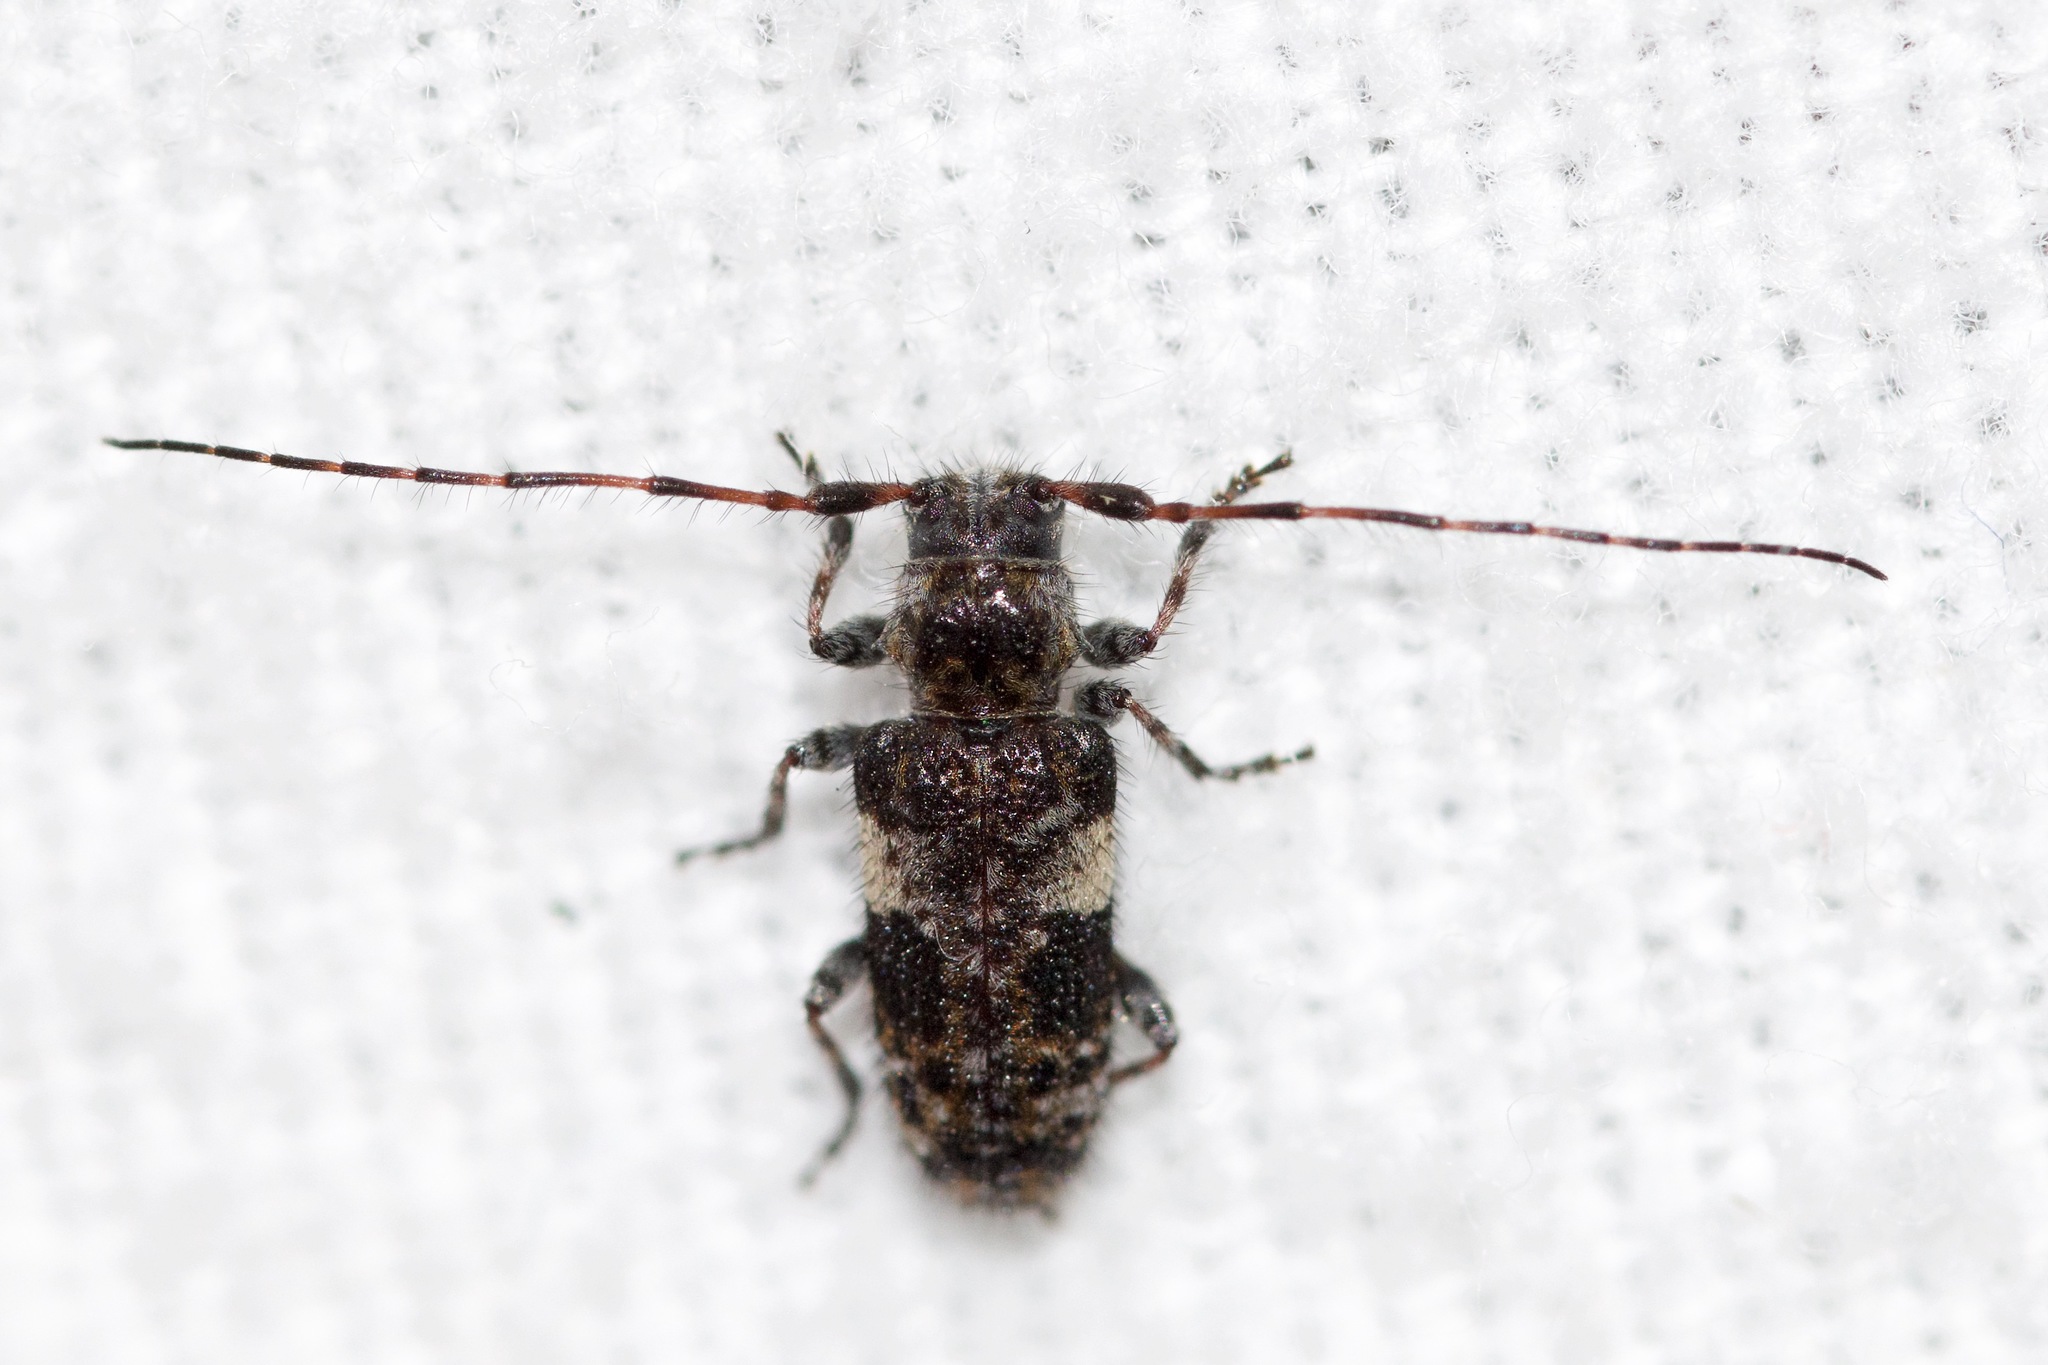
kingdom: Animalia
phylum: Arthropoda
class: Insecta
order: Coleoptera
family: Cerambycidae
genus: Pogonocherus
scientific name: Pogonocherus mixtus
